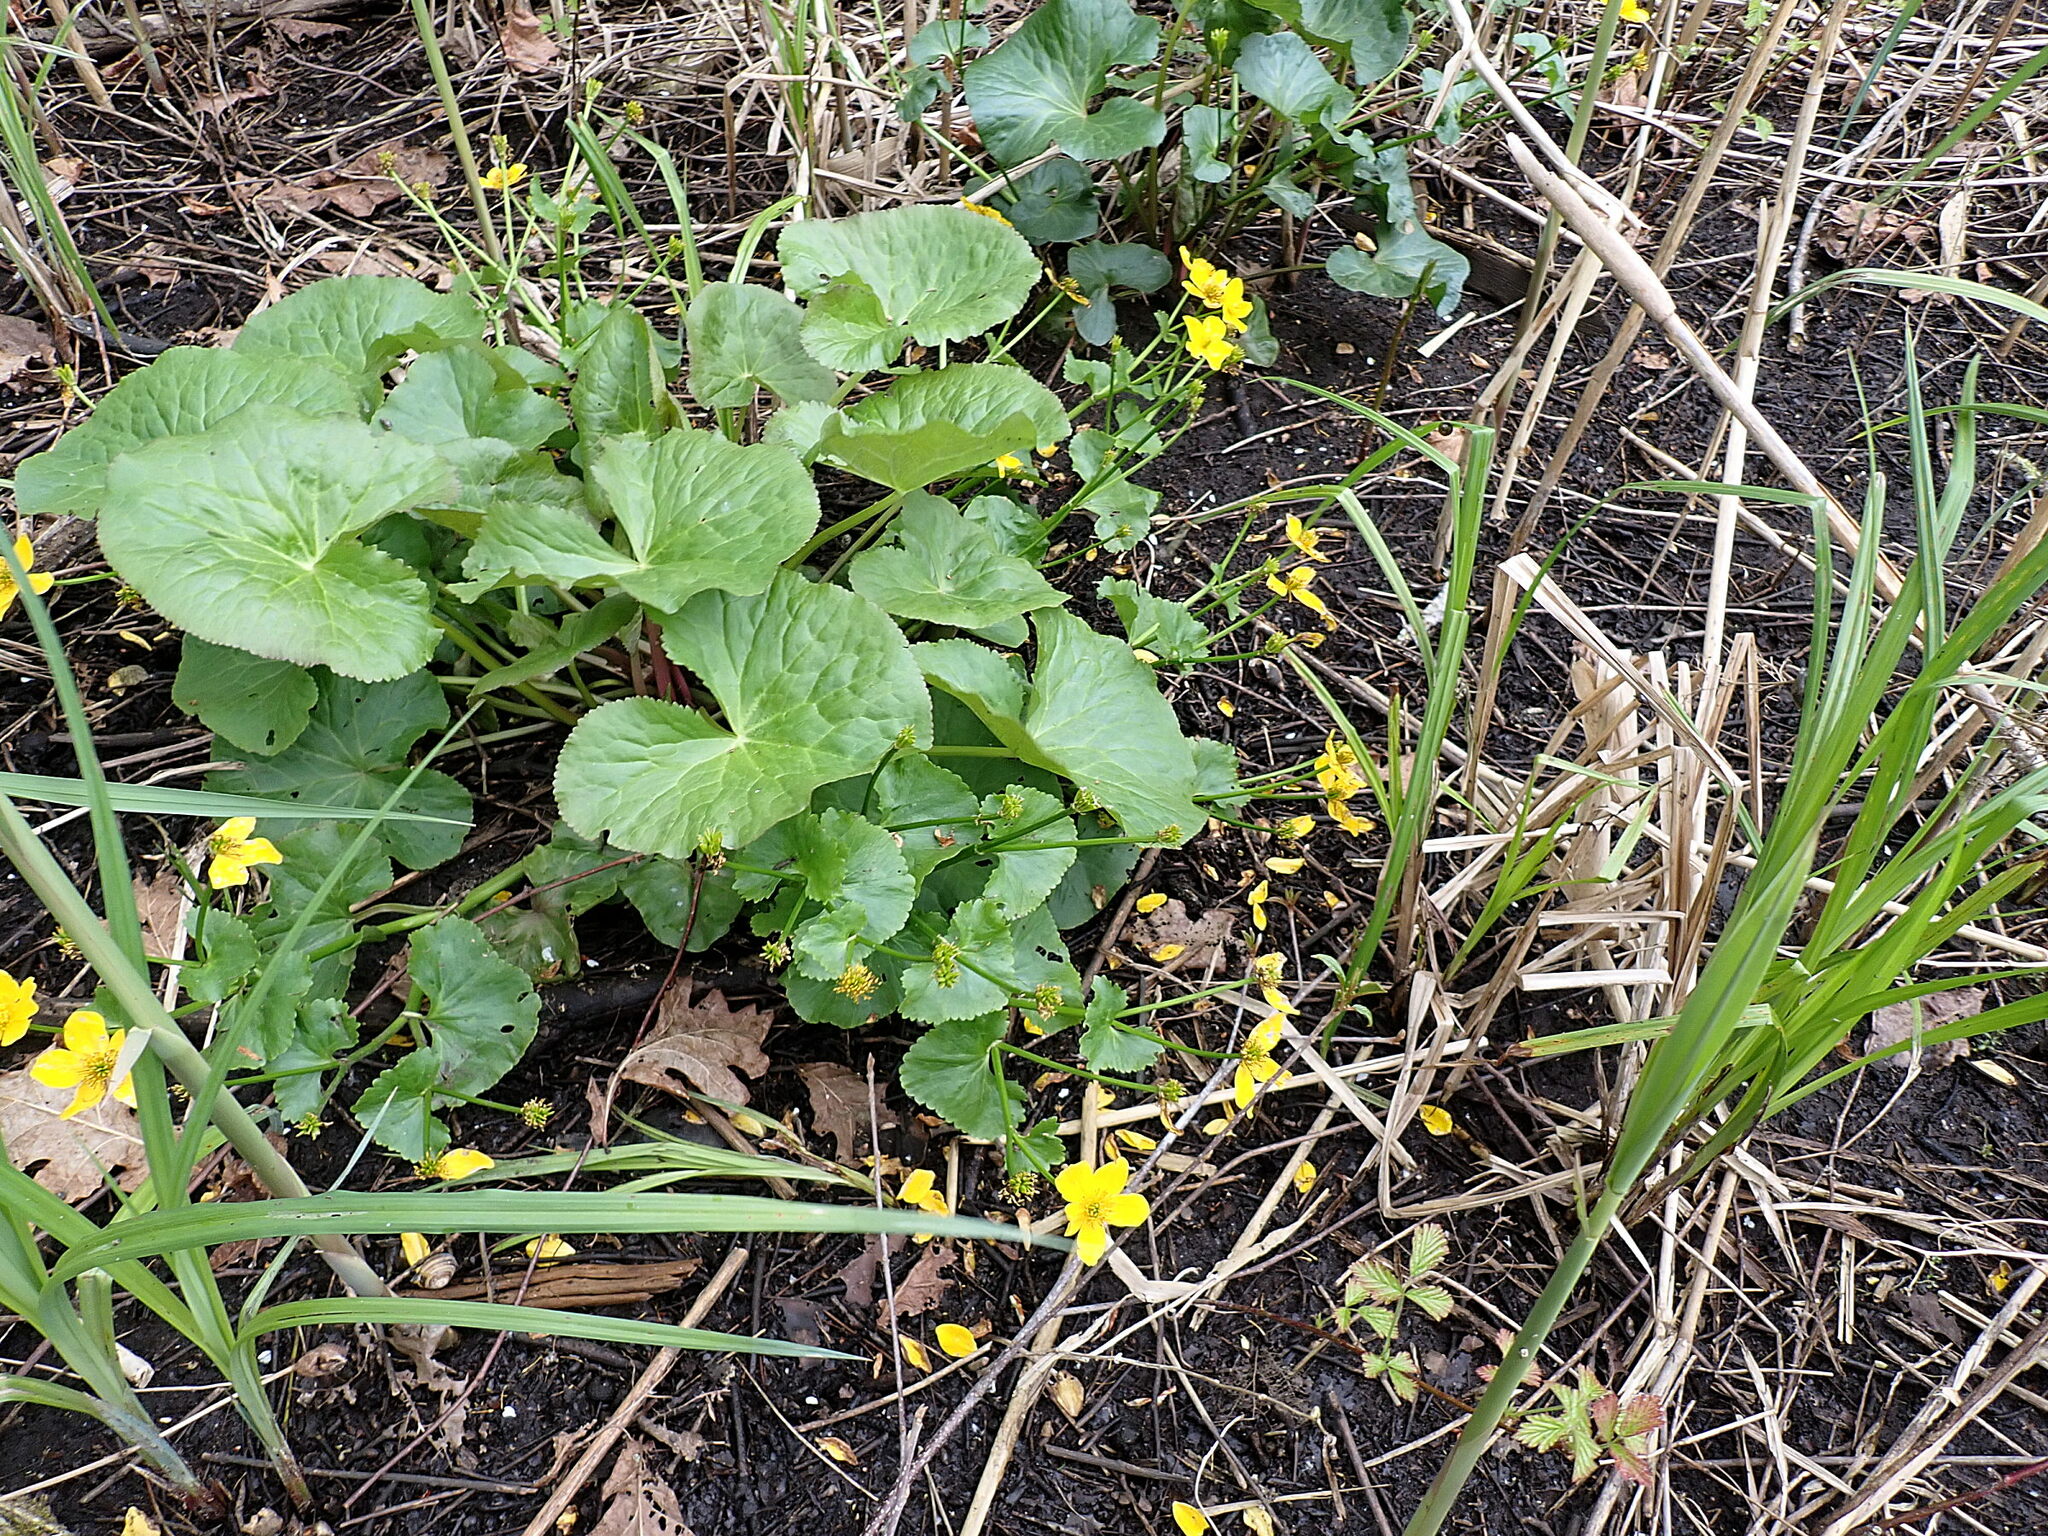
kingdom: Plantae
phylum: Tracheophyta
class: Magnoliopsida
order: Ranunculales
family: Ranunculaceae
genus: Caltha
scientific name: Caltha palustris
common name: Marsh marigold
